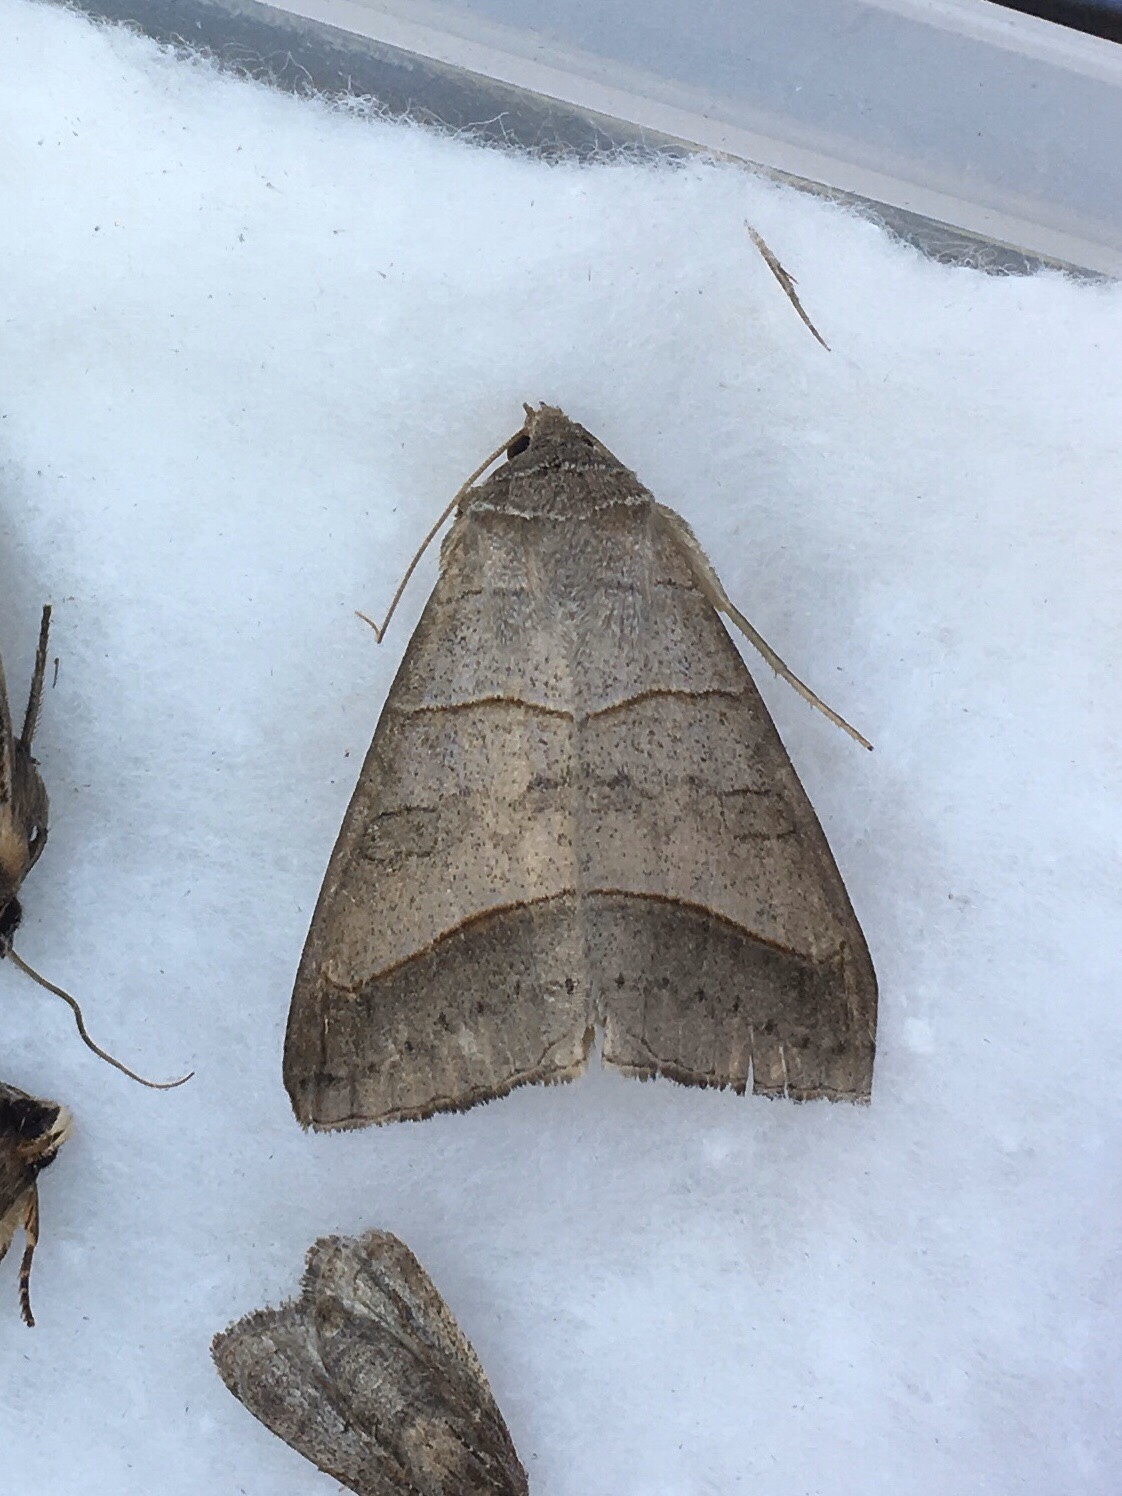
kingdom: Animalia
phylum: Arthropoda
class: Insecta
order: Lepidoptera
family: Erebidae
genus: Mocis
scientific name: Mocis texana
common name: Texas mocis moth
